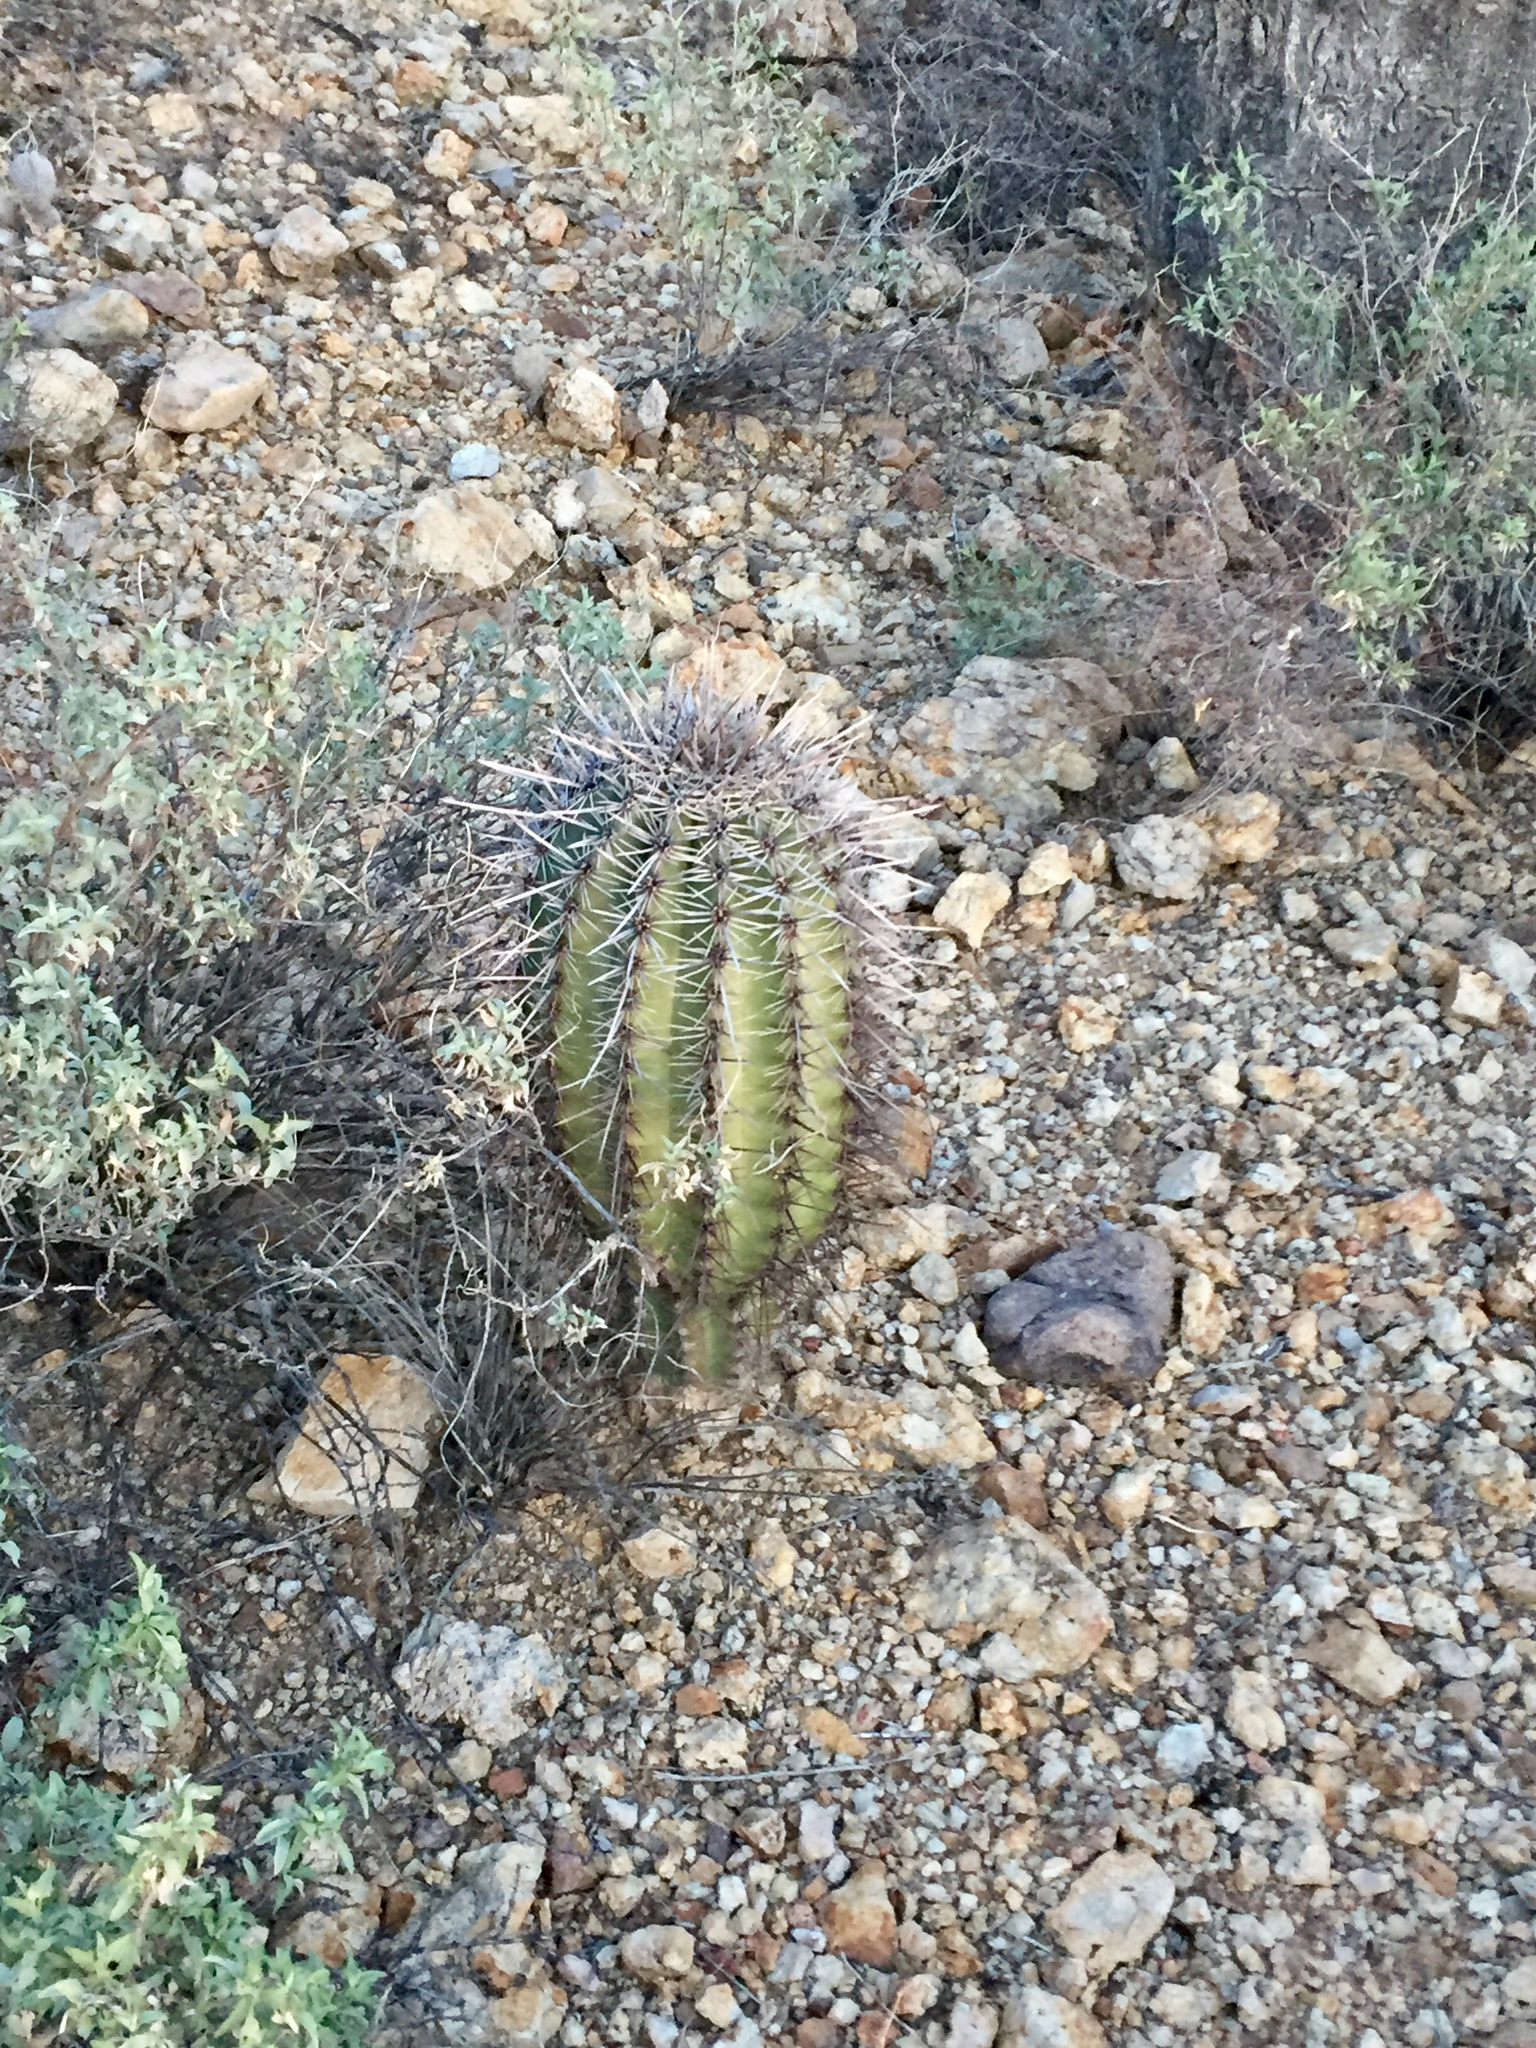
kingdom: Plantae
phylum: Tracheophyta
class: Magnoliopsida
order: Caryophyllales
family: Cactaceae
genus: Carnegiea
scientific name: Carnegiea gigantea
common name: Saguaro
